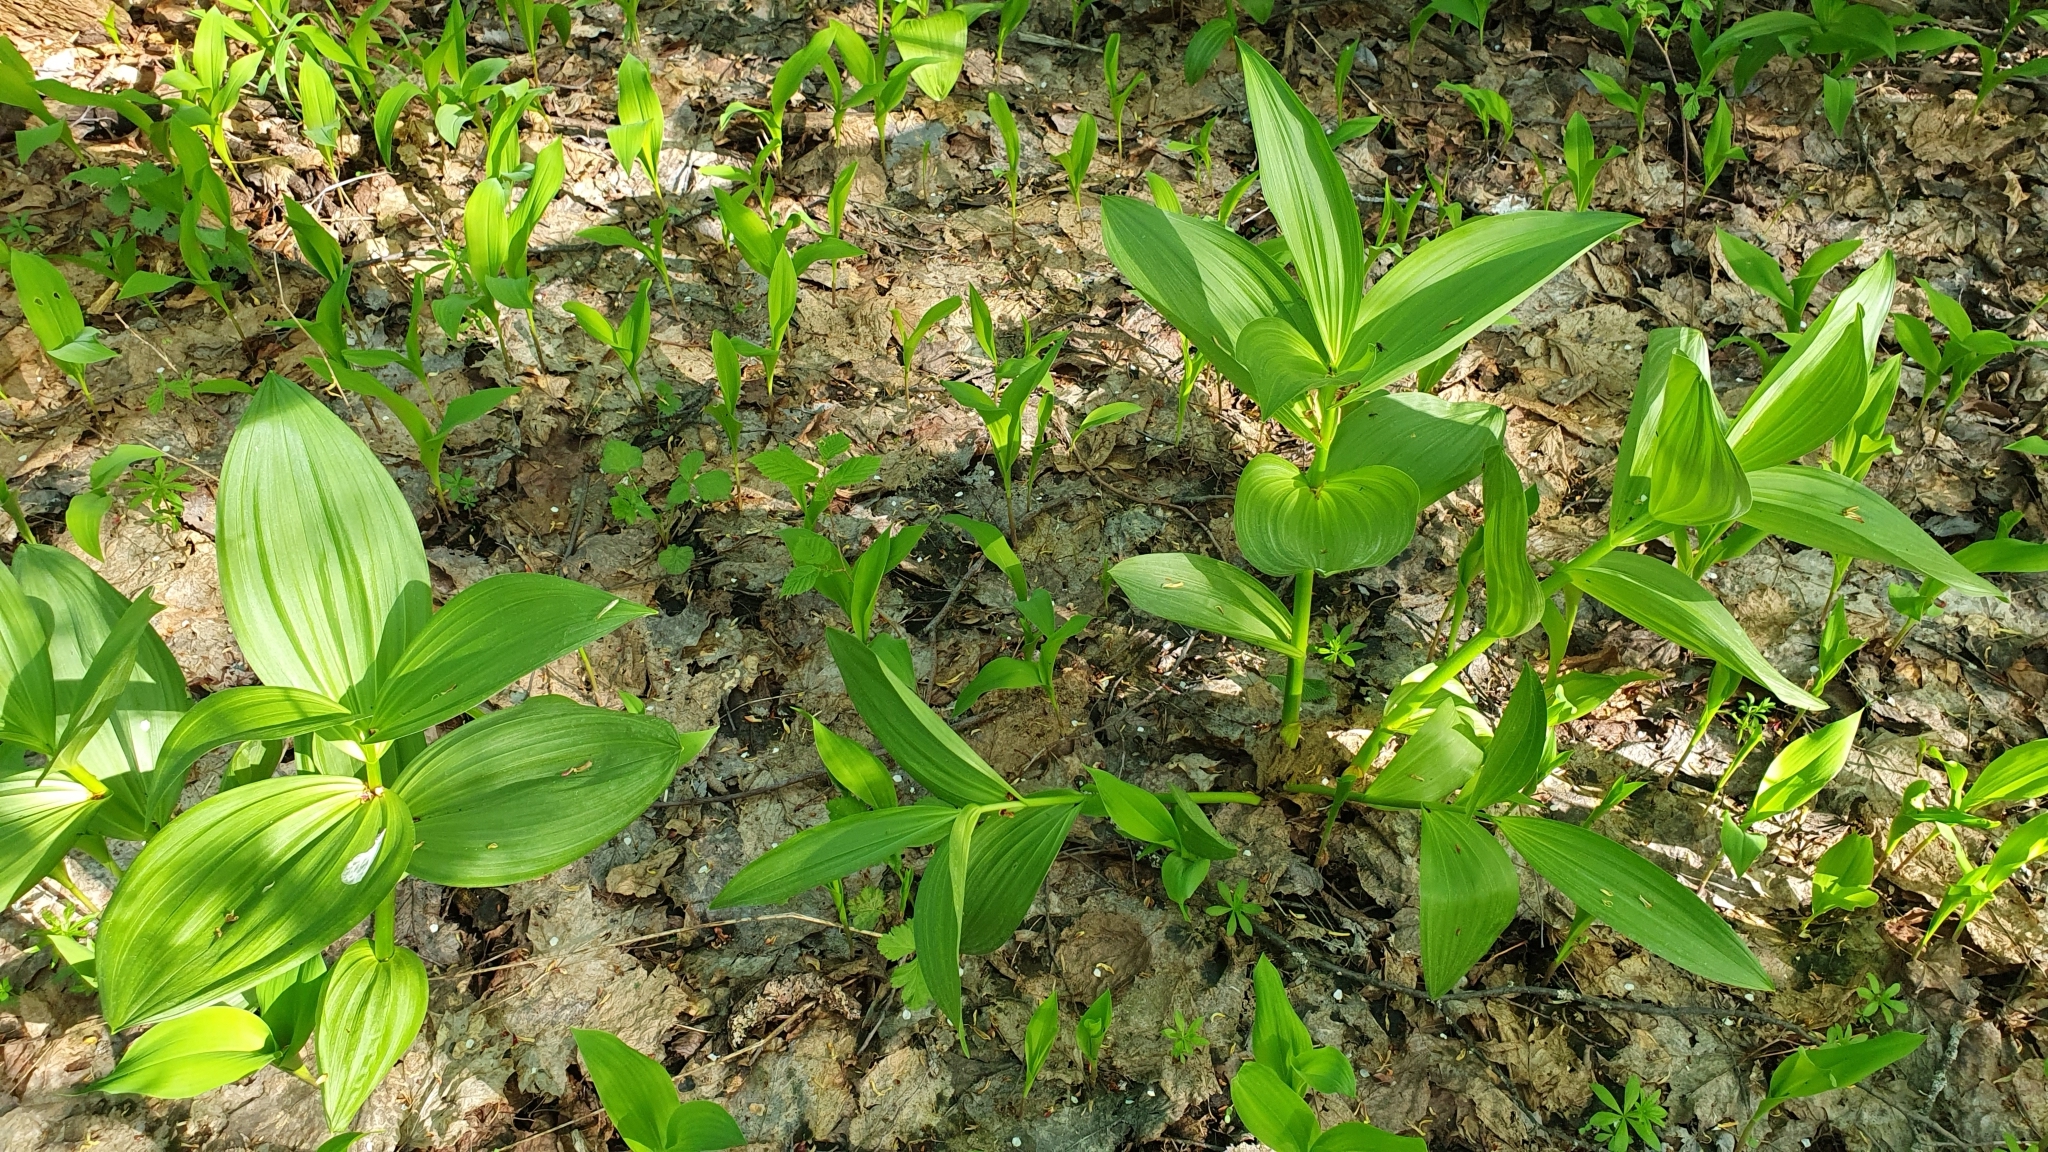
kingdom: Plantae
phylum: Tracheophyta
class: Liliopsida
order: Liliales
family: Melanthiaceae
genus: Veratrum
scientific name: Veratrum lobelianum
